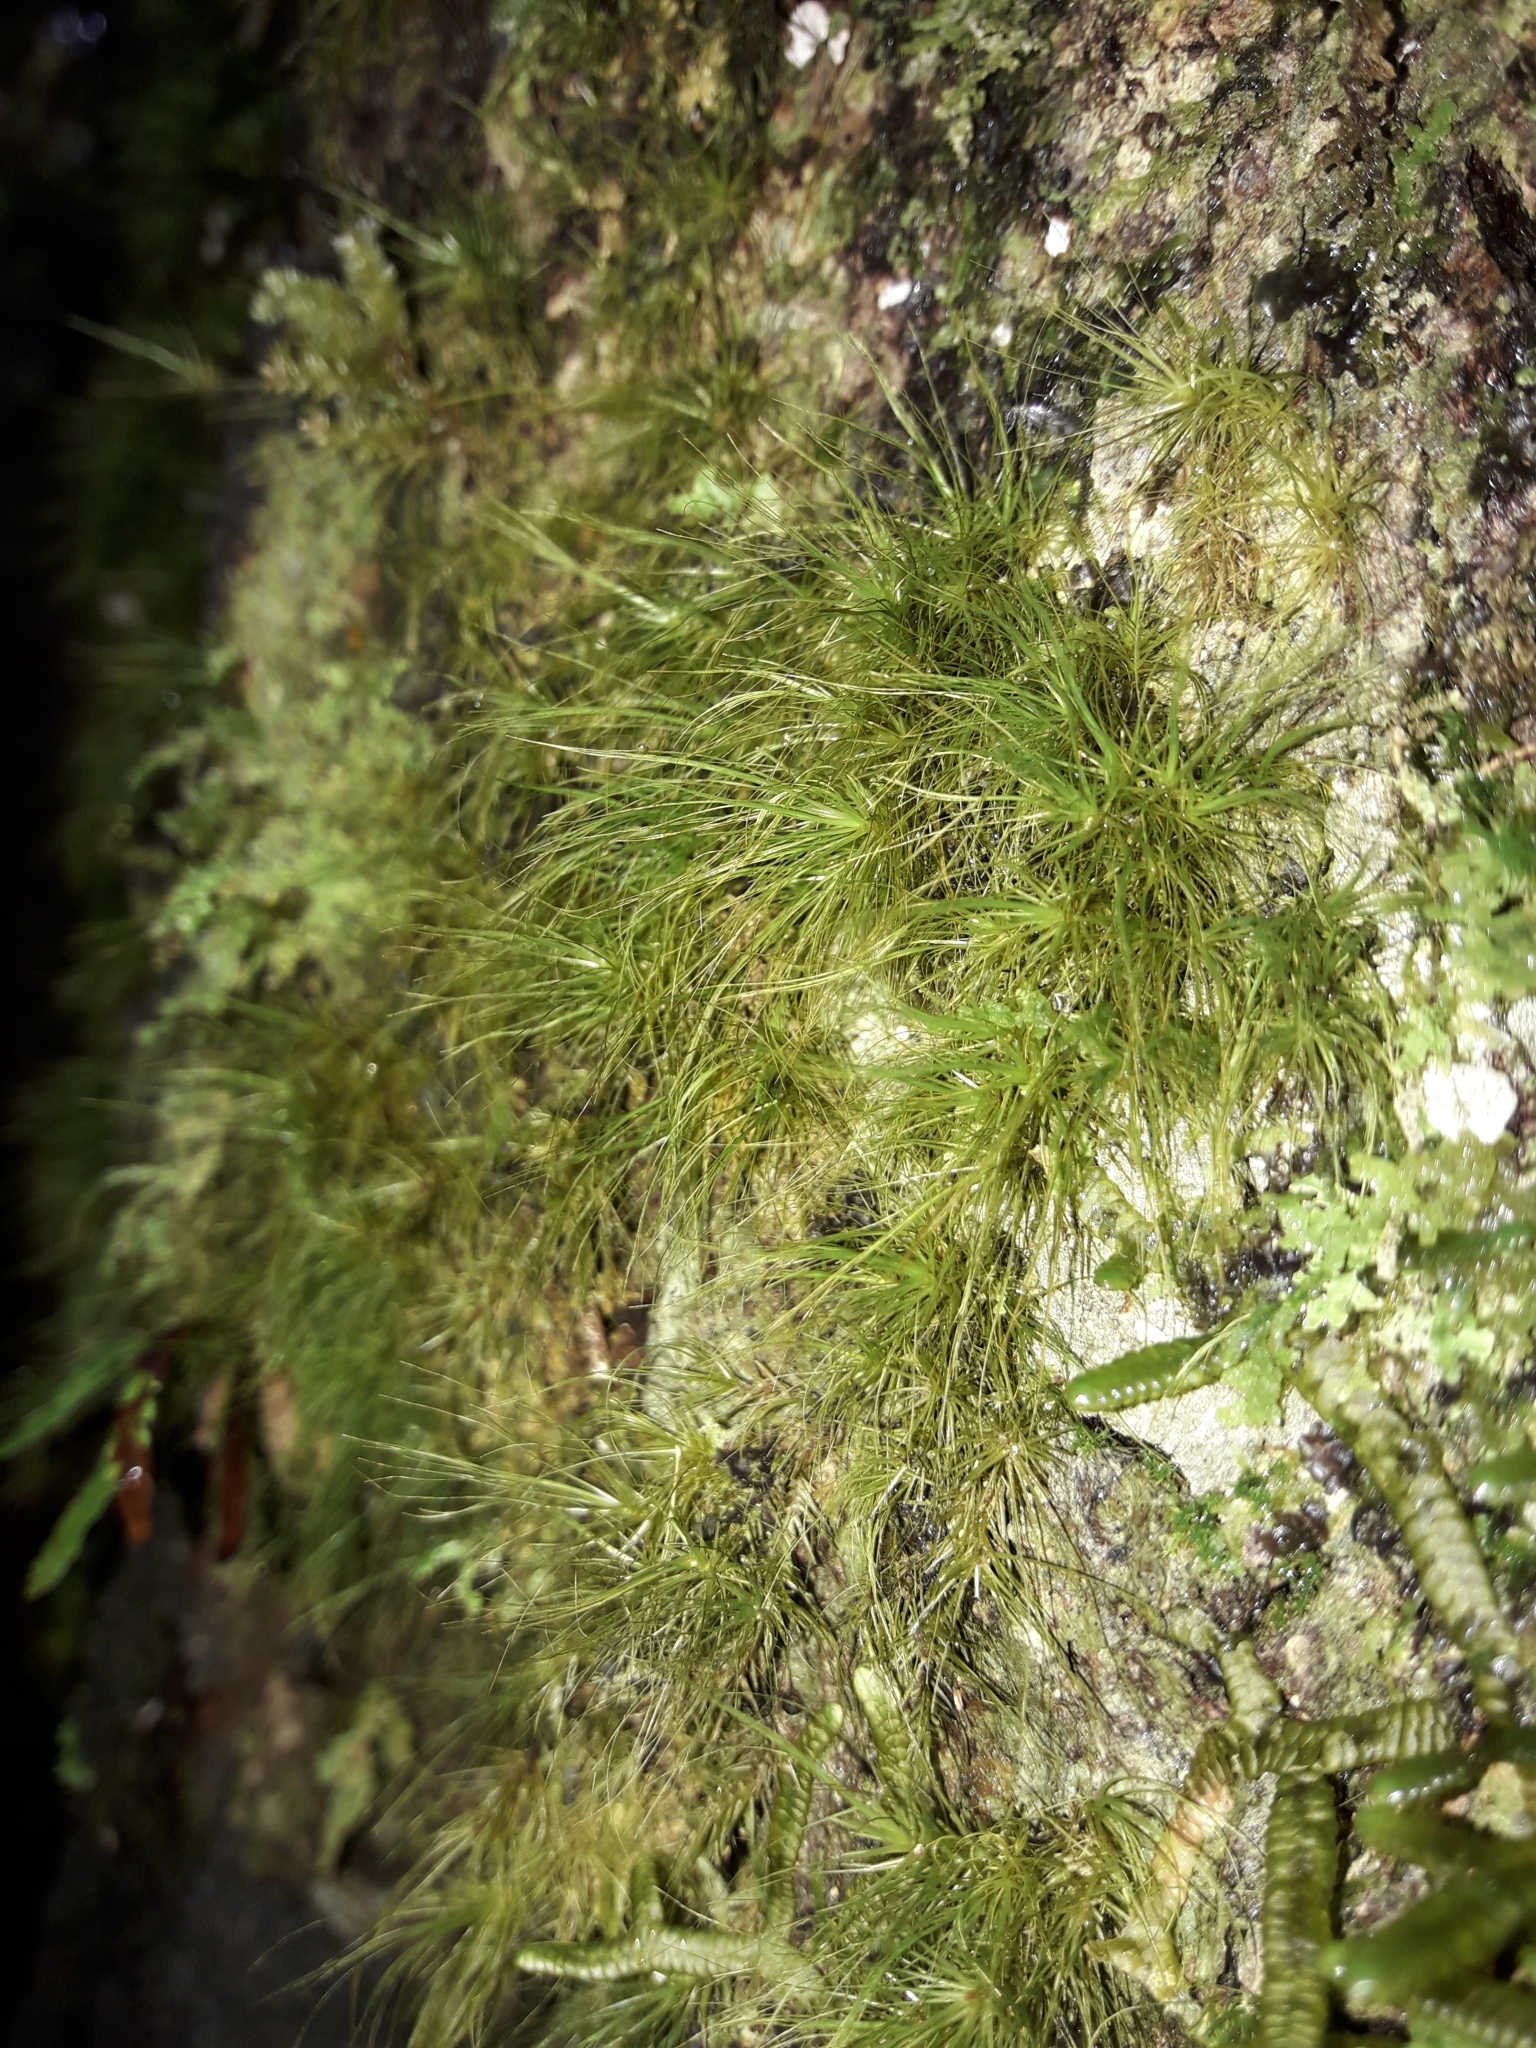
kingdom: Plantae
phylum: Bryophyta
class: Bryopsida
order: Dicranales
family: Dicranaceae
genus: Dicranoloma
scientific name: Dicranoloma menziesii
